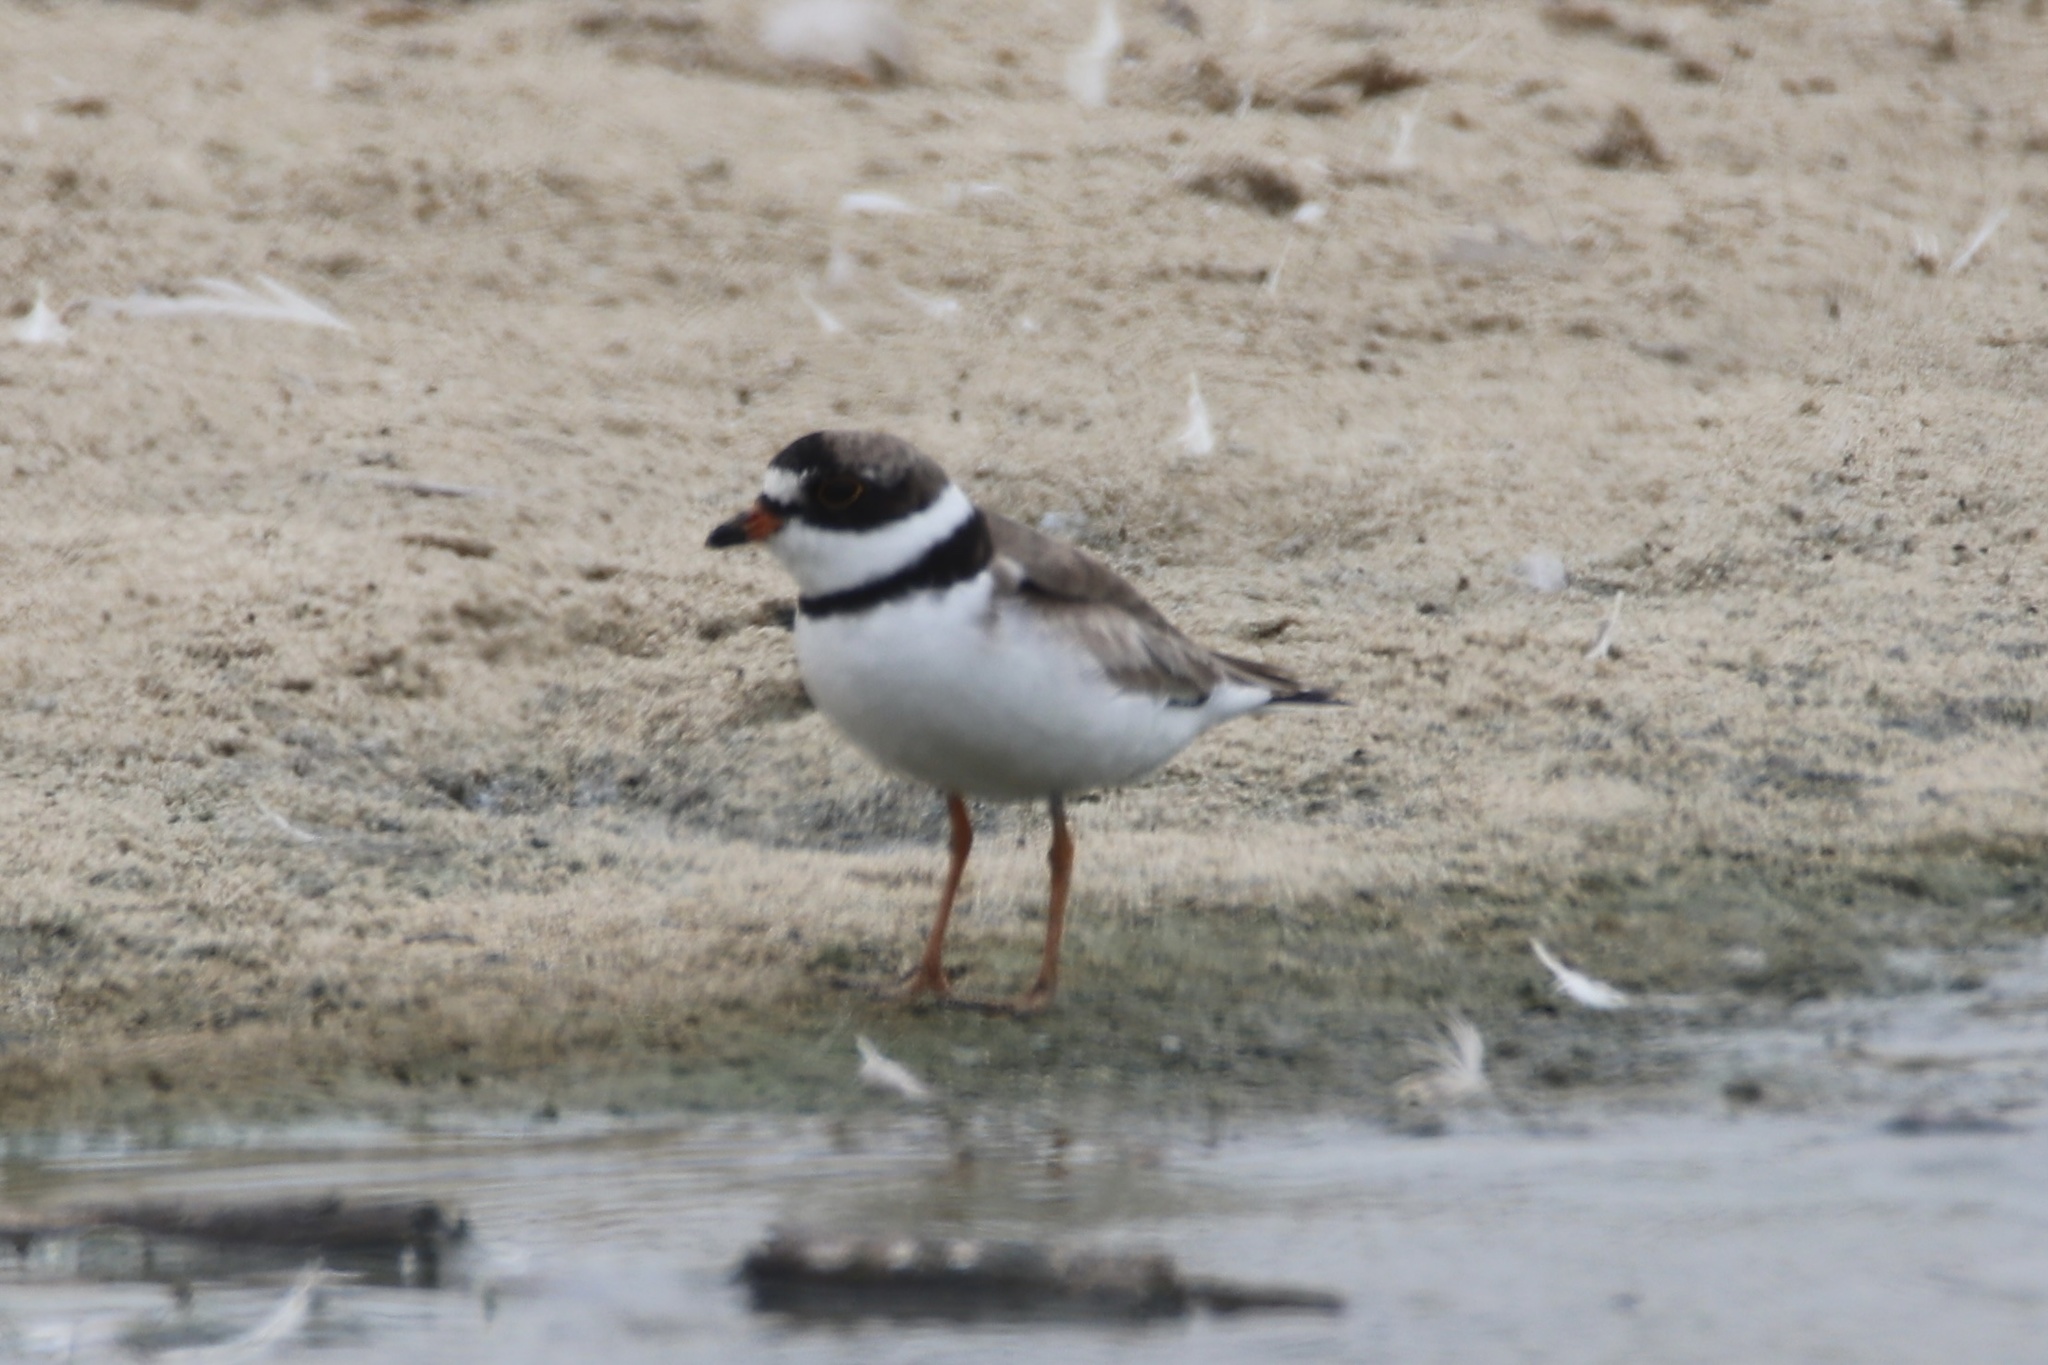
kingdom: Animalia
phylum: Chordata
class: Aves
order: Charadriiformes
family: Charadriidae
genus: Charadrius
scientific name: Charadrius semipalmatus
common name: Semipalmated plover
